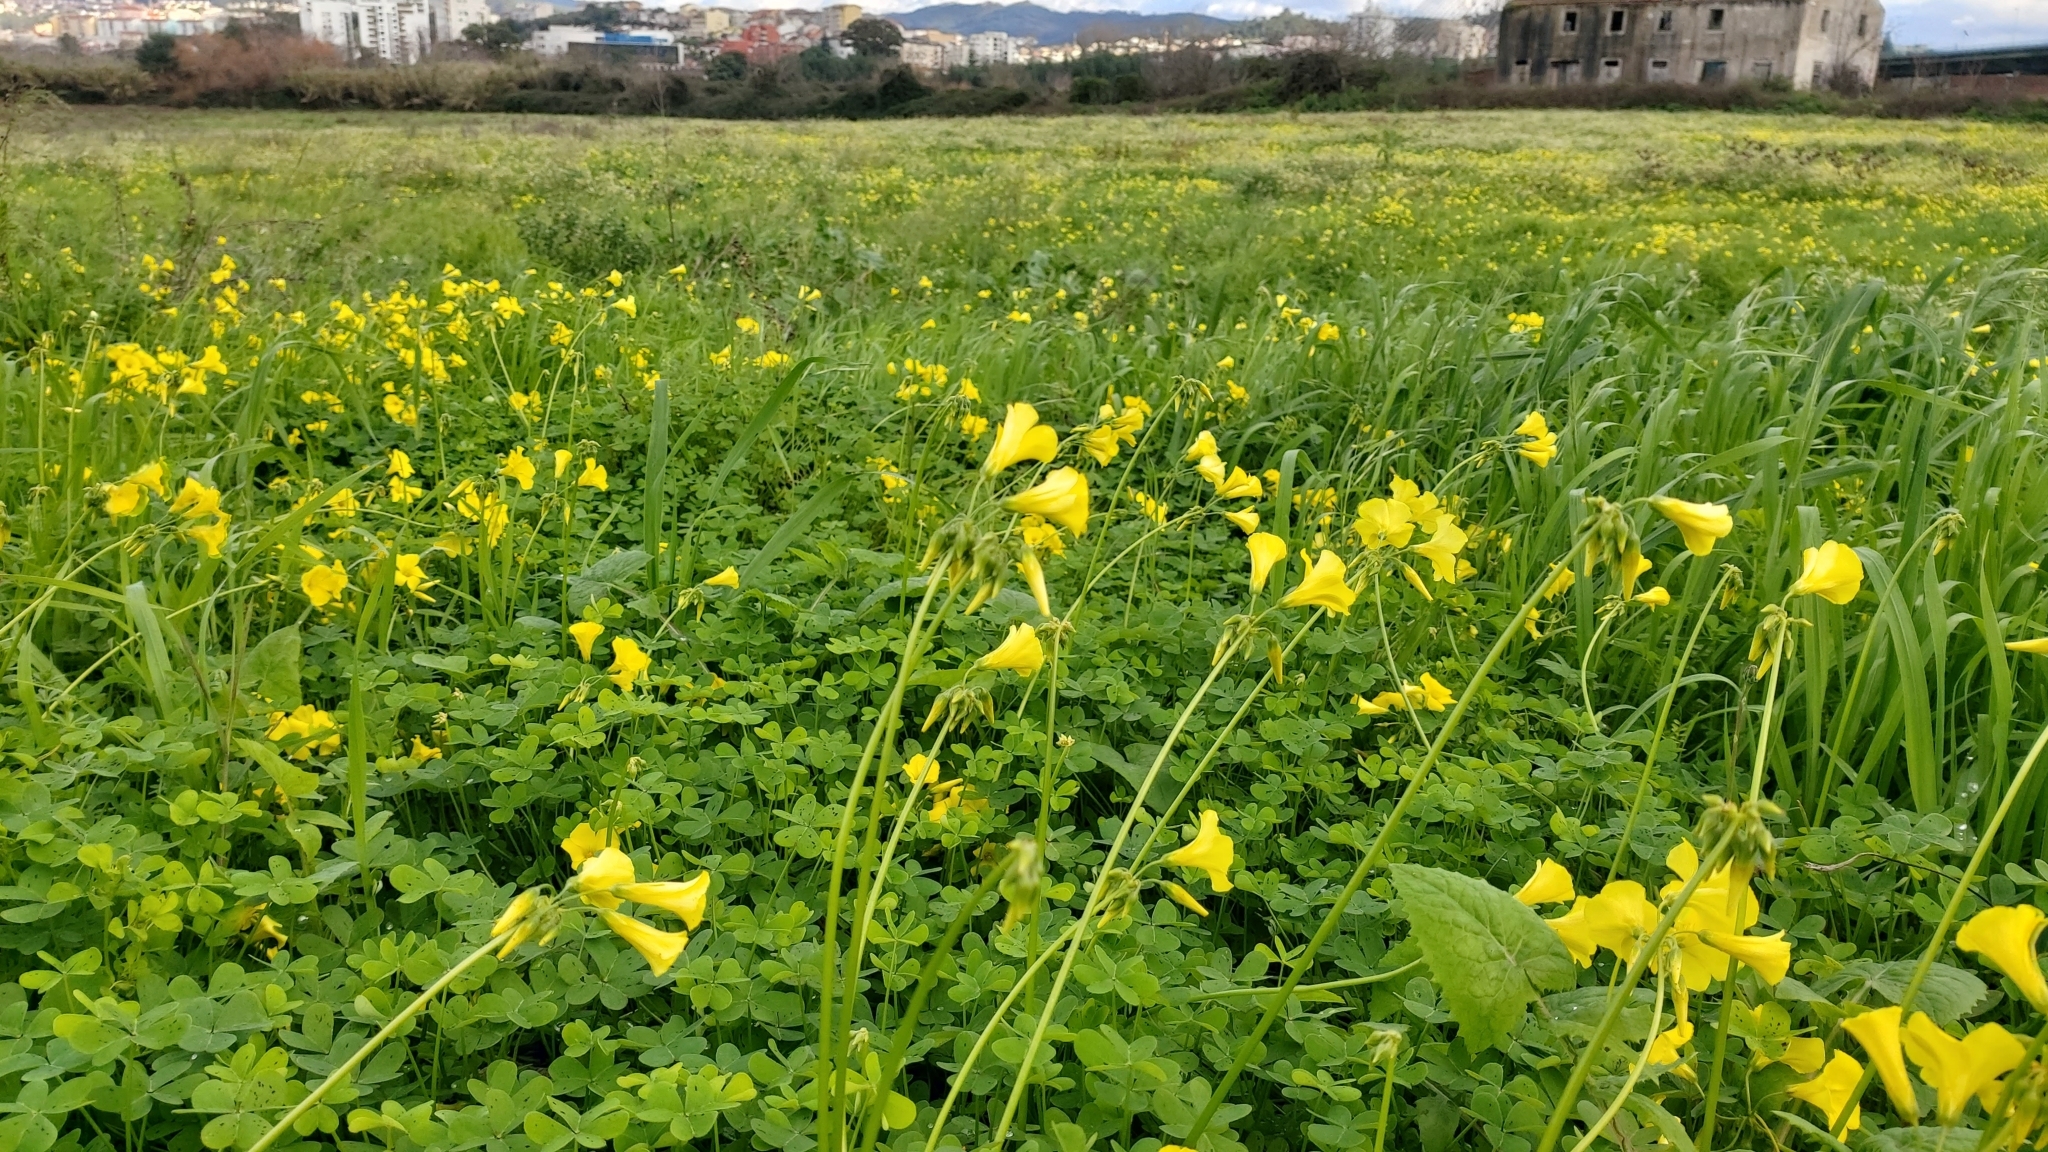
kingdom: Plantae
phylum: Tracheophyta
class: Magnoliopsida
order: Oxalidales
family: Oxalidaceae
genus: Oxalis
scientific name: Oxalis pes-caprae
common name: Bermuda-buttercup
